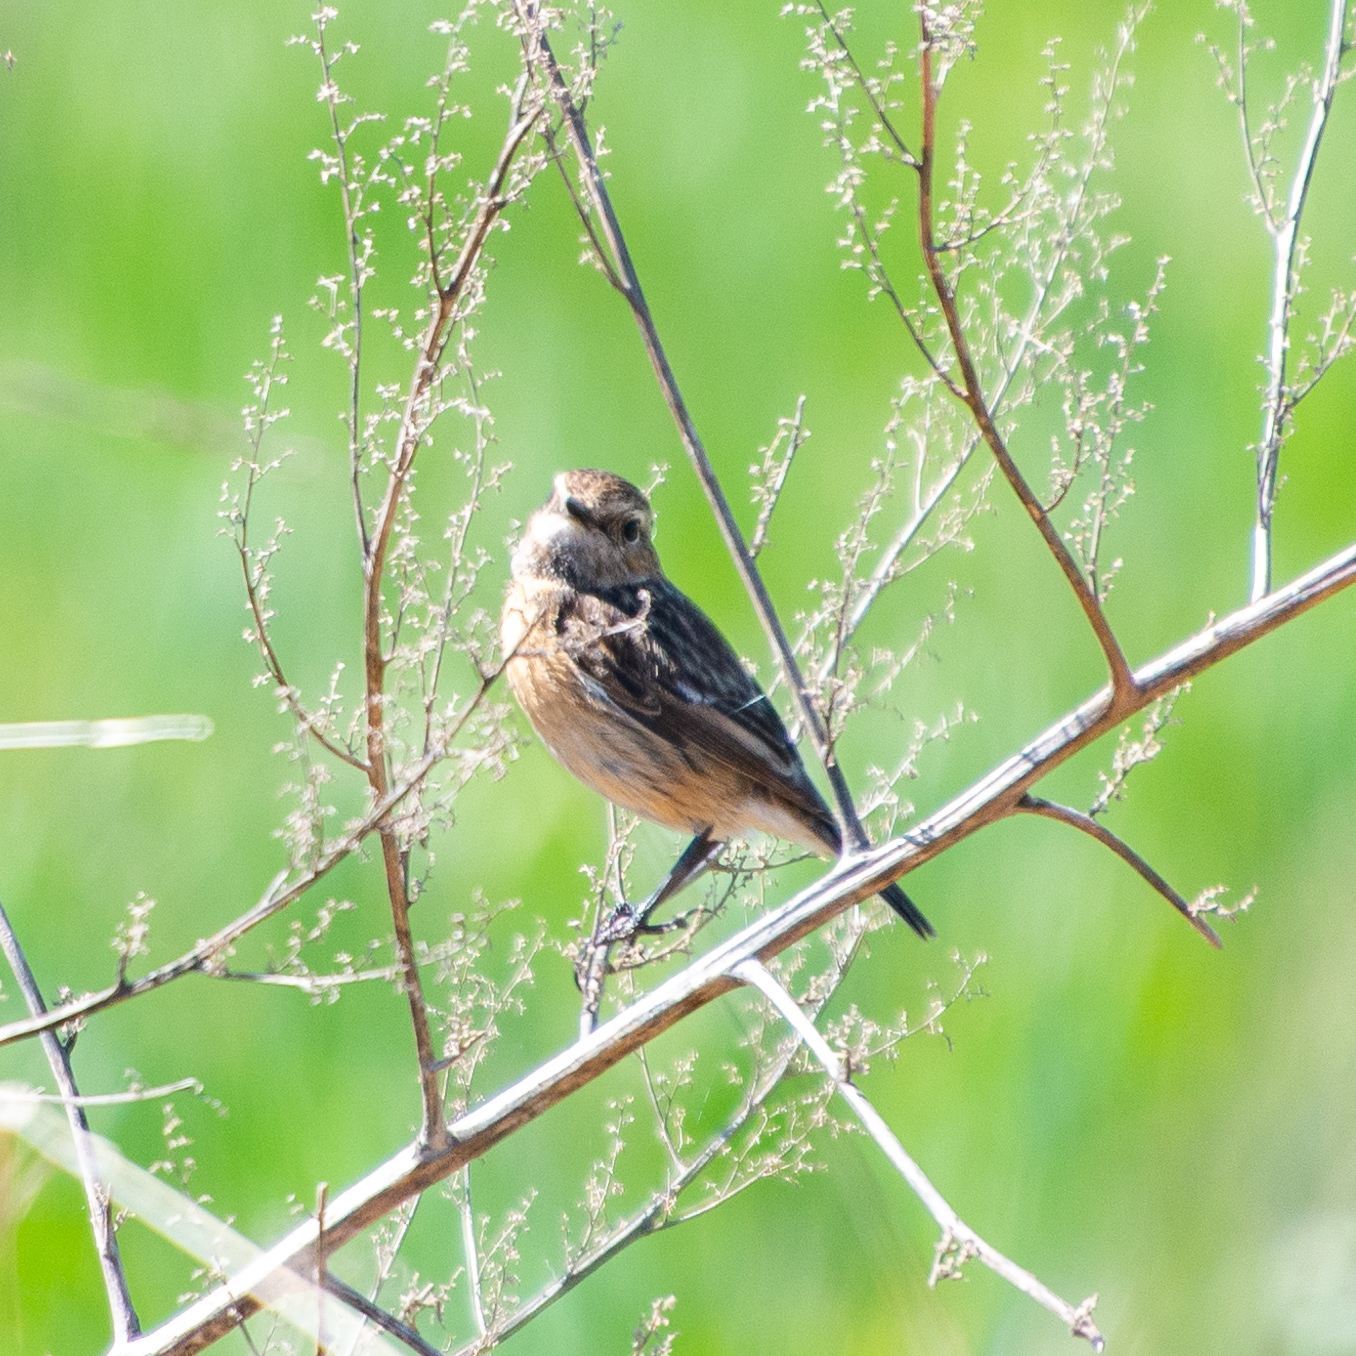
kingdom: Animalia
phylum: Chordata
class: Aves
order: Passeriformes
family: Muscicapidae
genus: Saxicola
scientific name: Saxicola rubicola
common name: European stonechat
